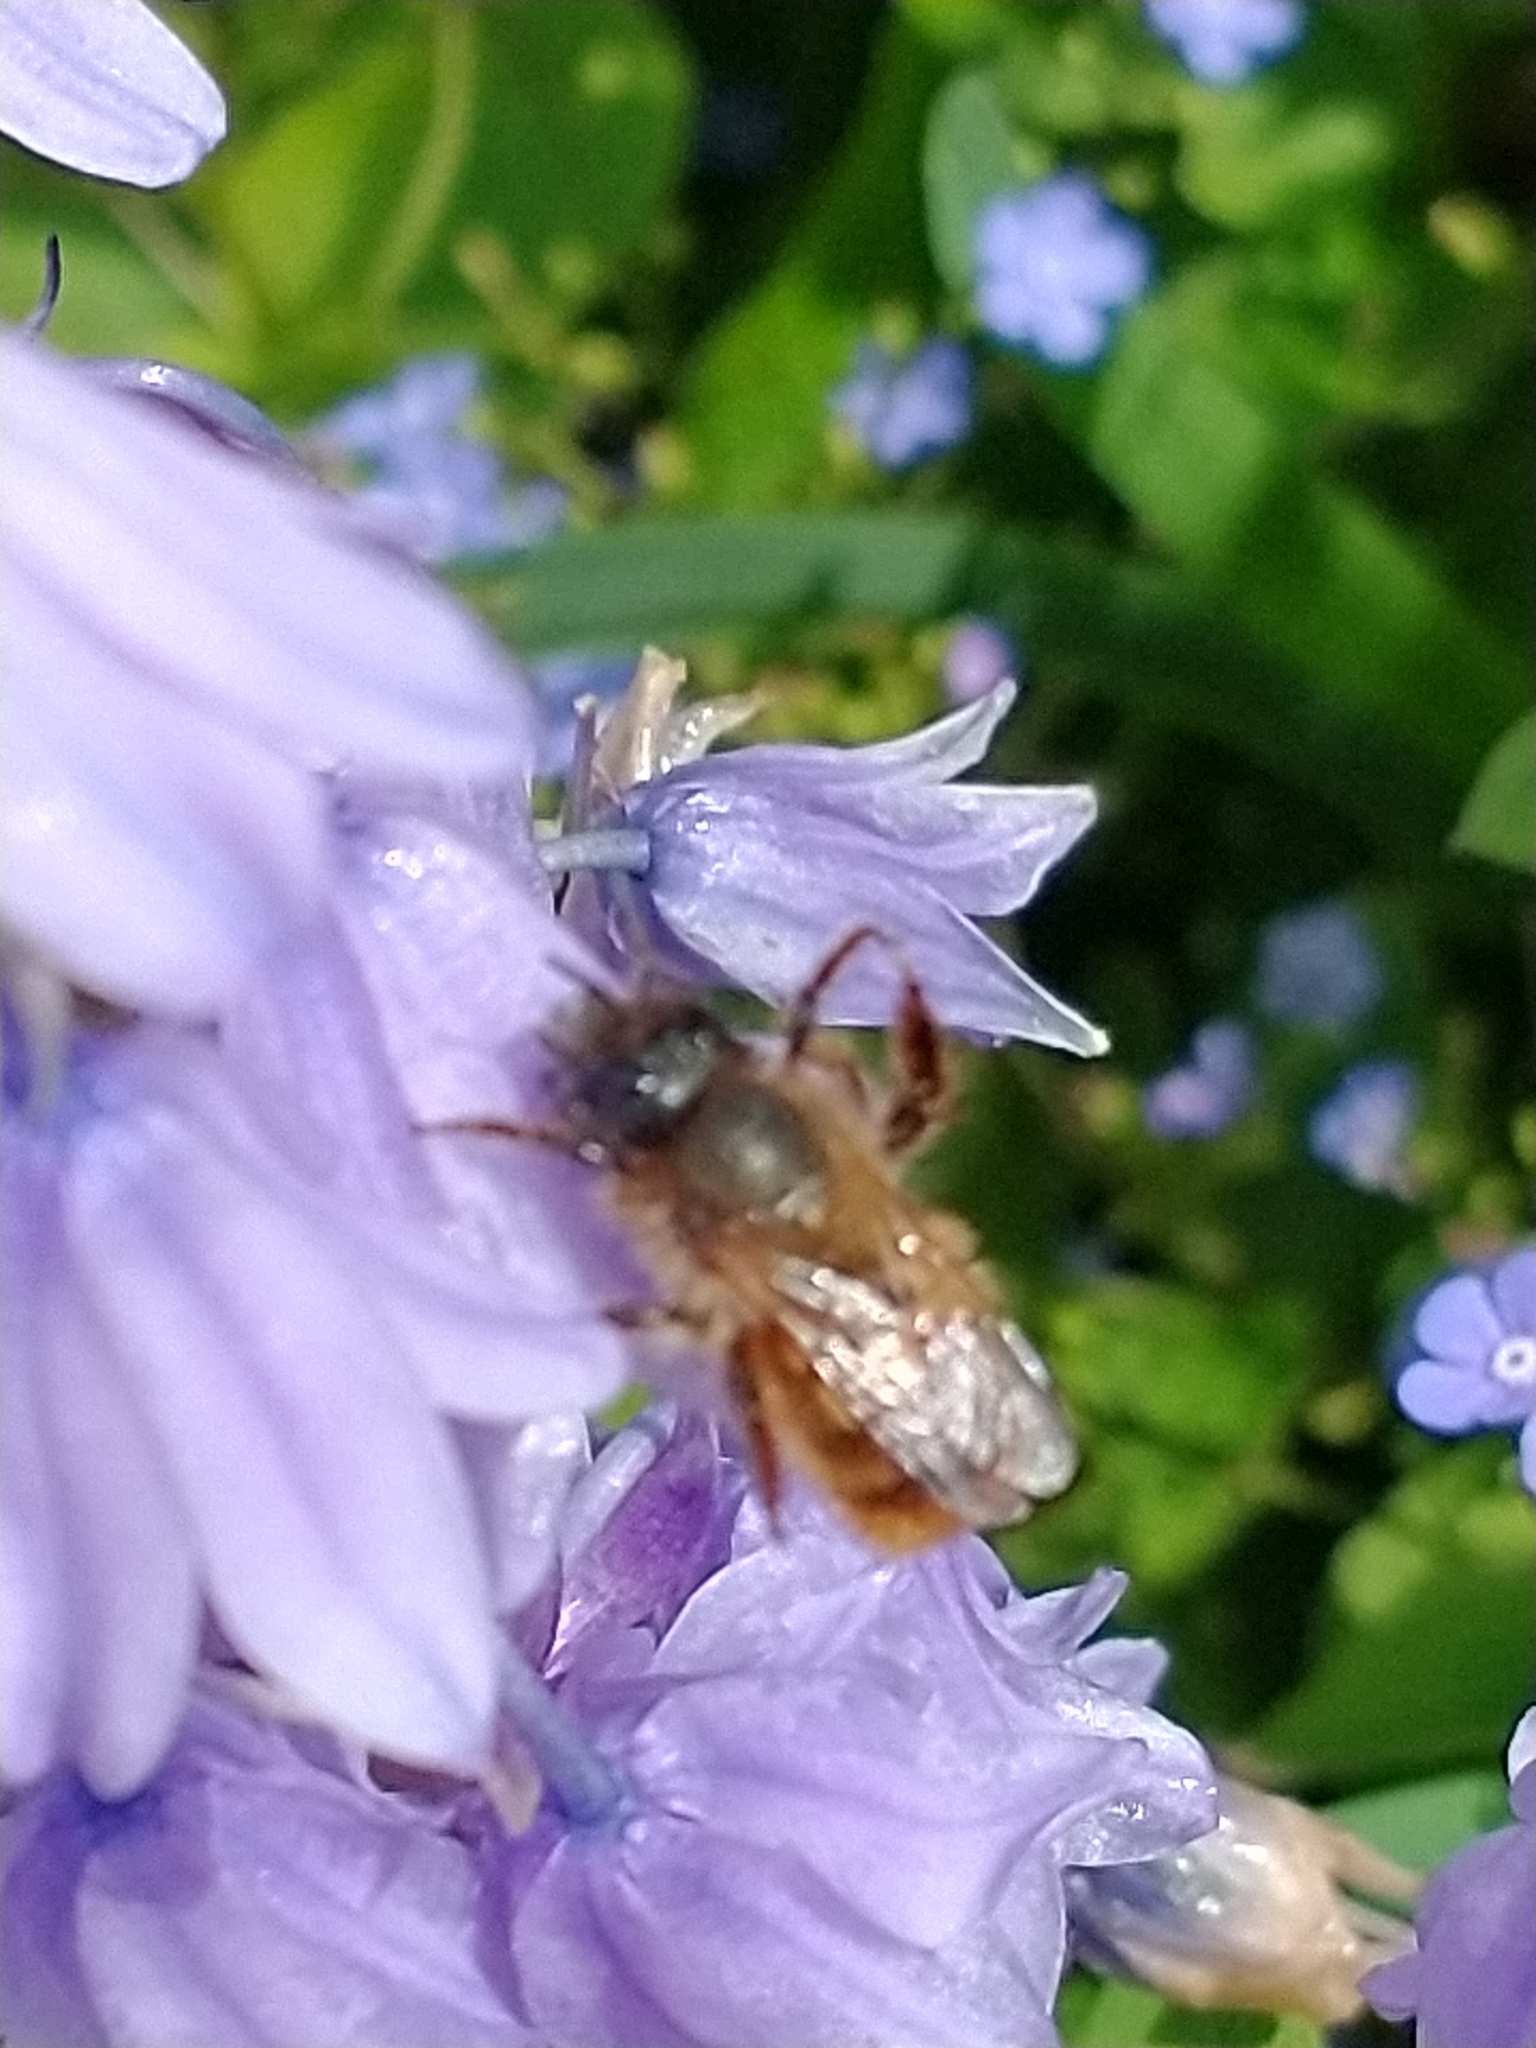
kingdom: Animalia
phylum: Arthropoda
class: Insecta
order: Hymenoptera
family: Megachilidae
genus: Osmia
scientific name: Osmia bicornis
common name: Red mason bee
